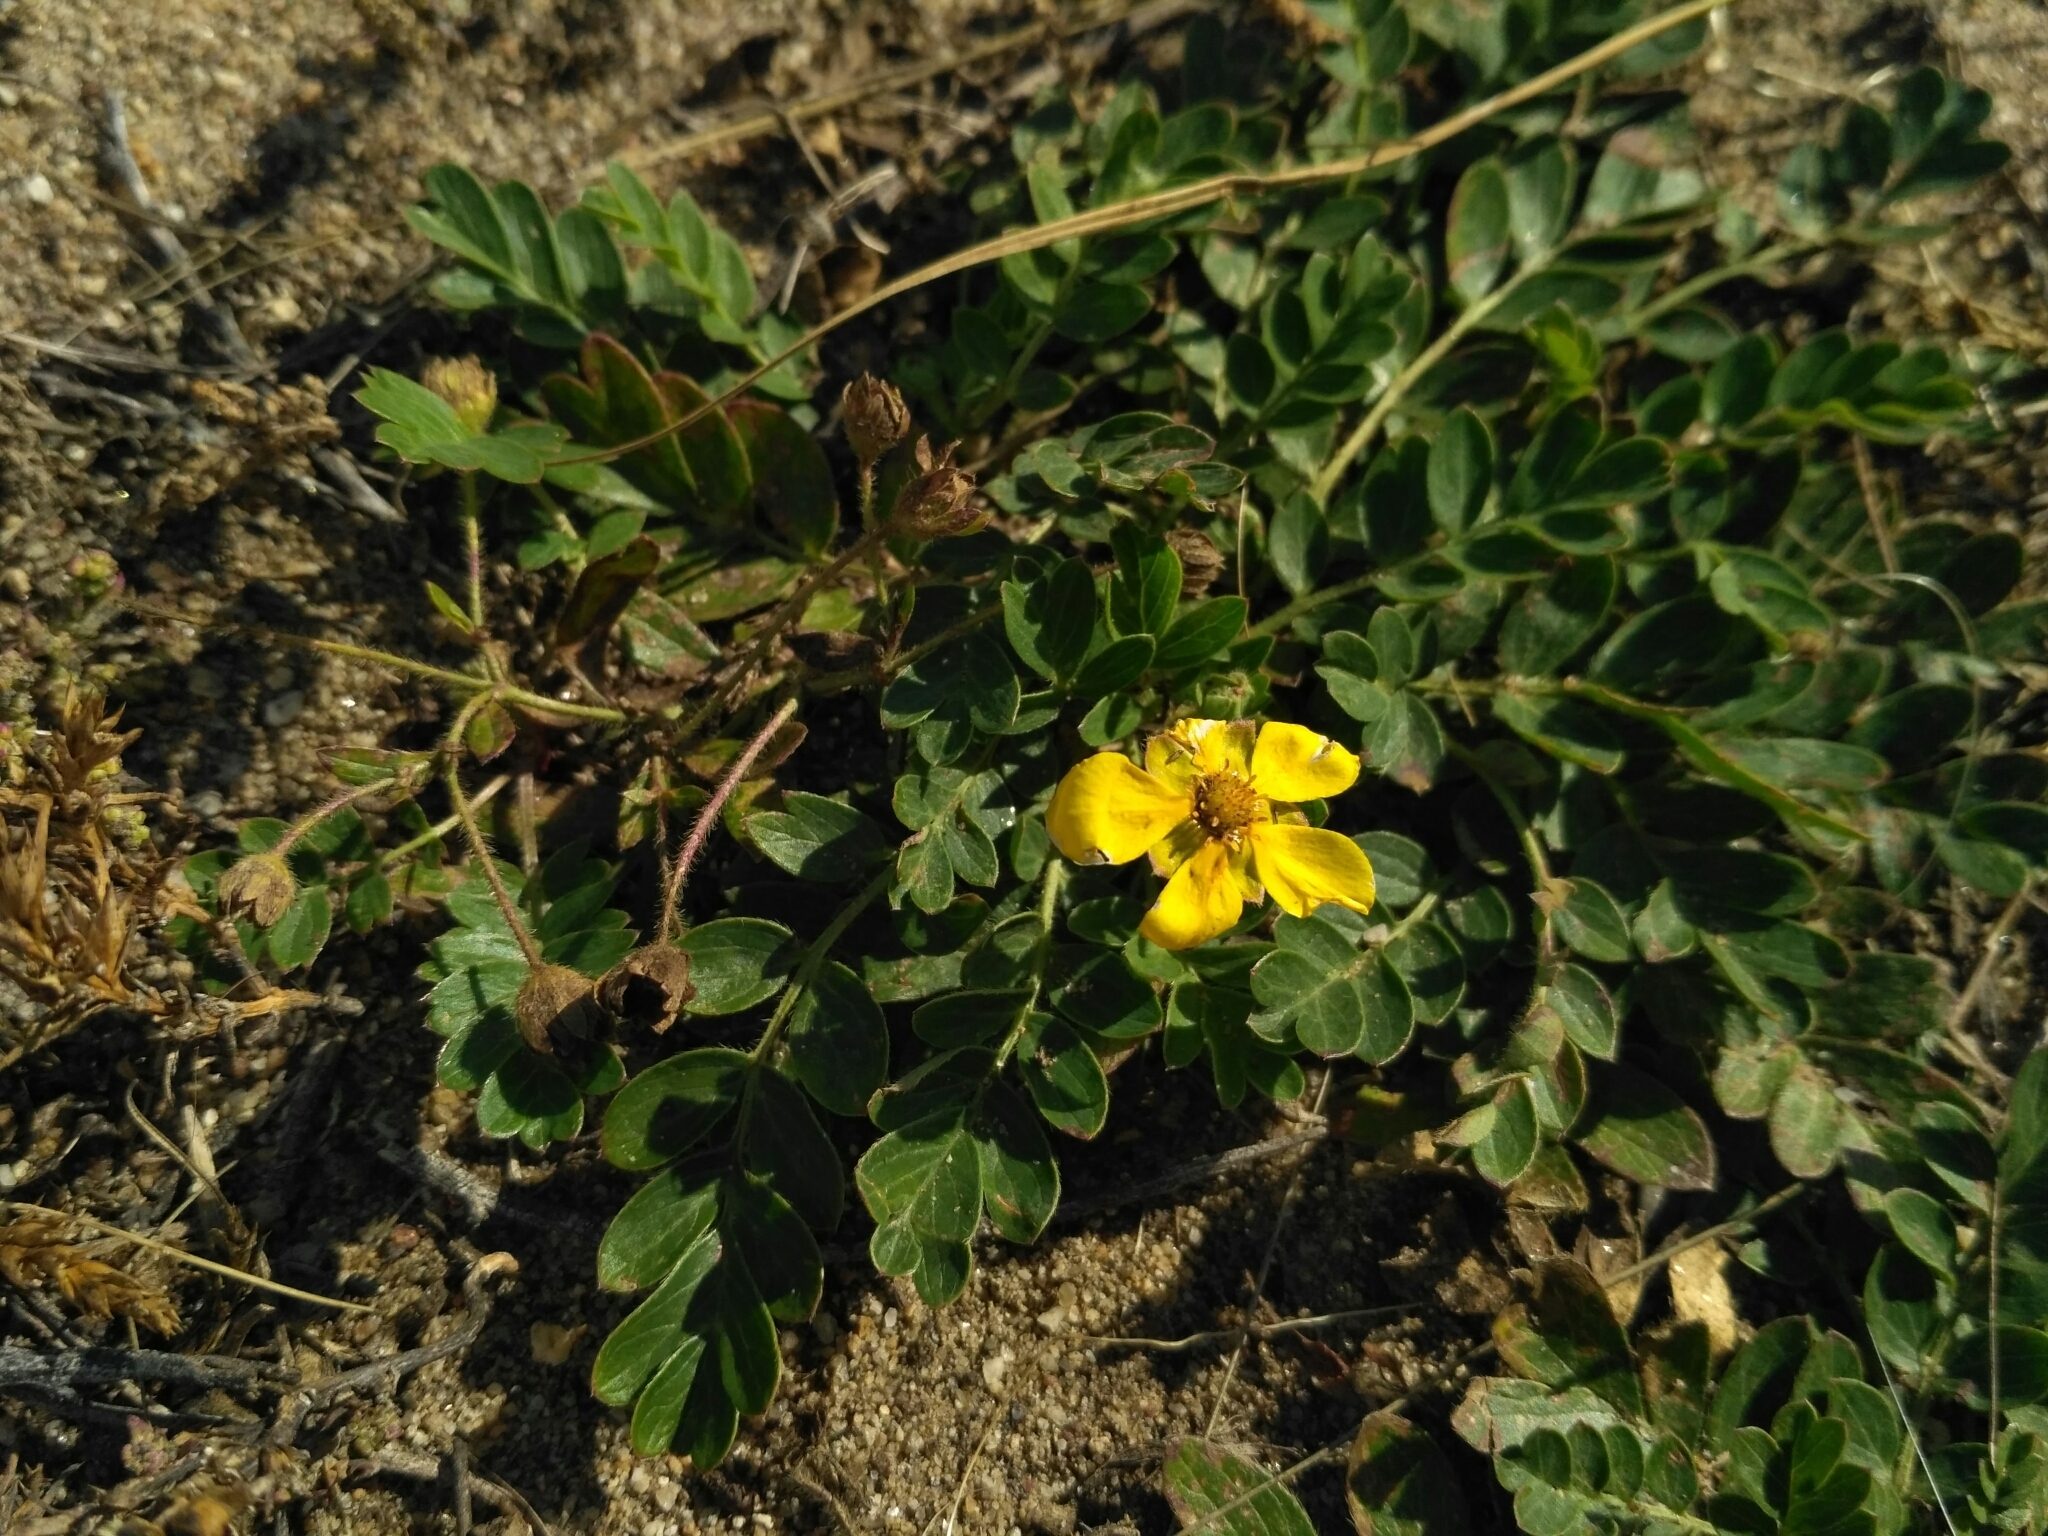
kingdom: Plantae
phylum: Tracheophyta
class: Magnoliopsida
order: Rosales
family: Rosaceae
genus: Sibbaldianthe
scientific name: Sibbaldianthe bifurca
